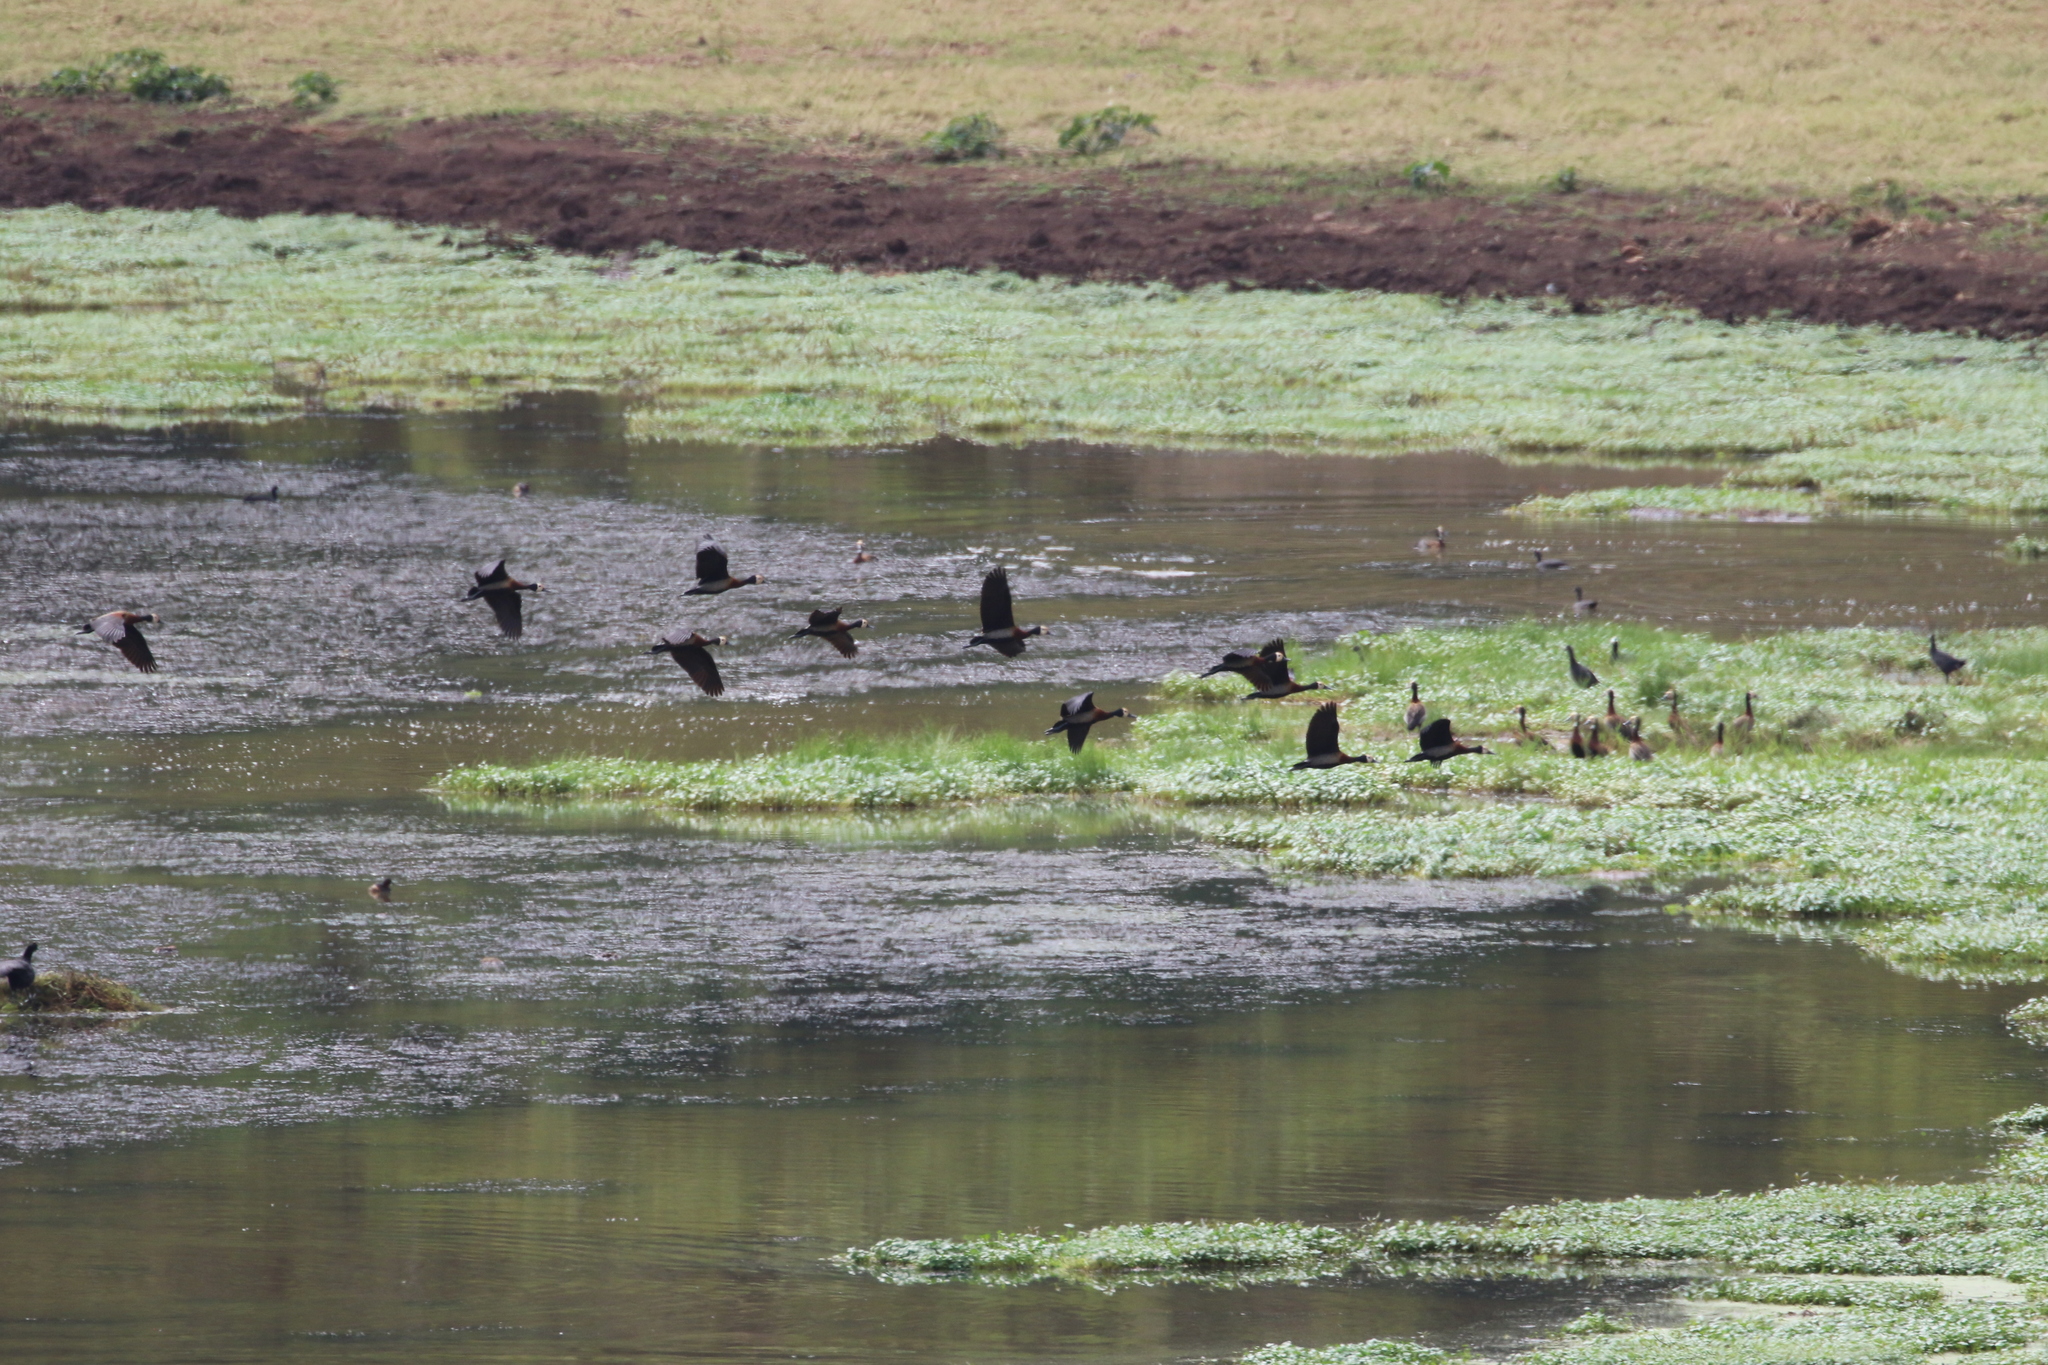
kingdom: Animalia
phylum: Chordata
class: Aves
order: Anseriformes
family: Anatidae
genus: Dendrocygna
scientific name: Dendrocygna viduata
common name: White-faced whistling duck
